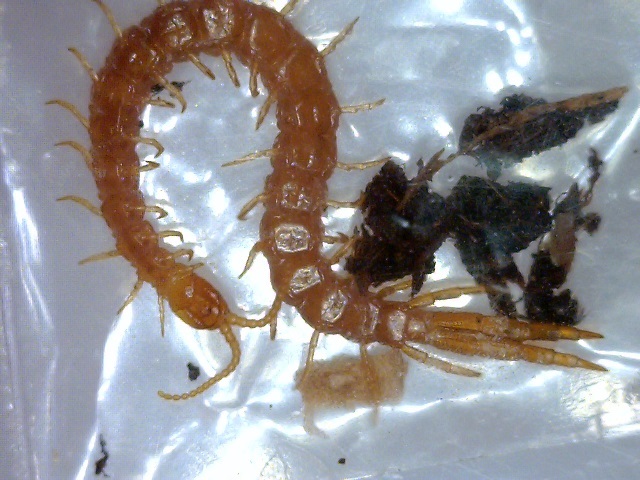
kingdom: Animalia
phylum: Arthropoda
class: Chilopoda
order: Scolopendromorpha
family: Cryptopidae
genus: Cryptops
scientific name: Cryptops hortensis
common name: Centipede
